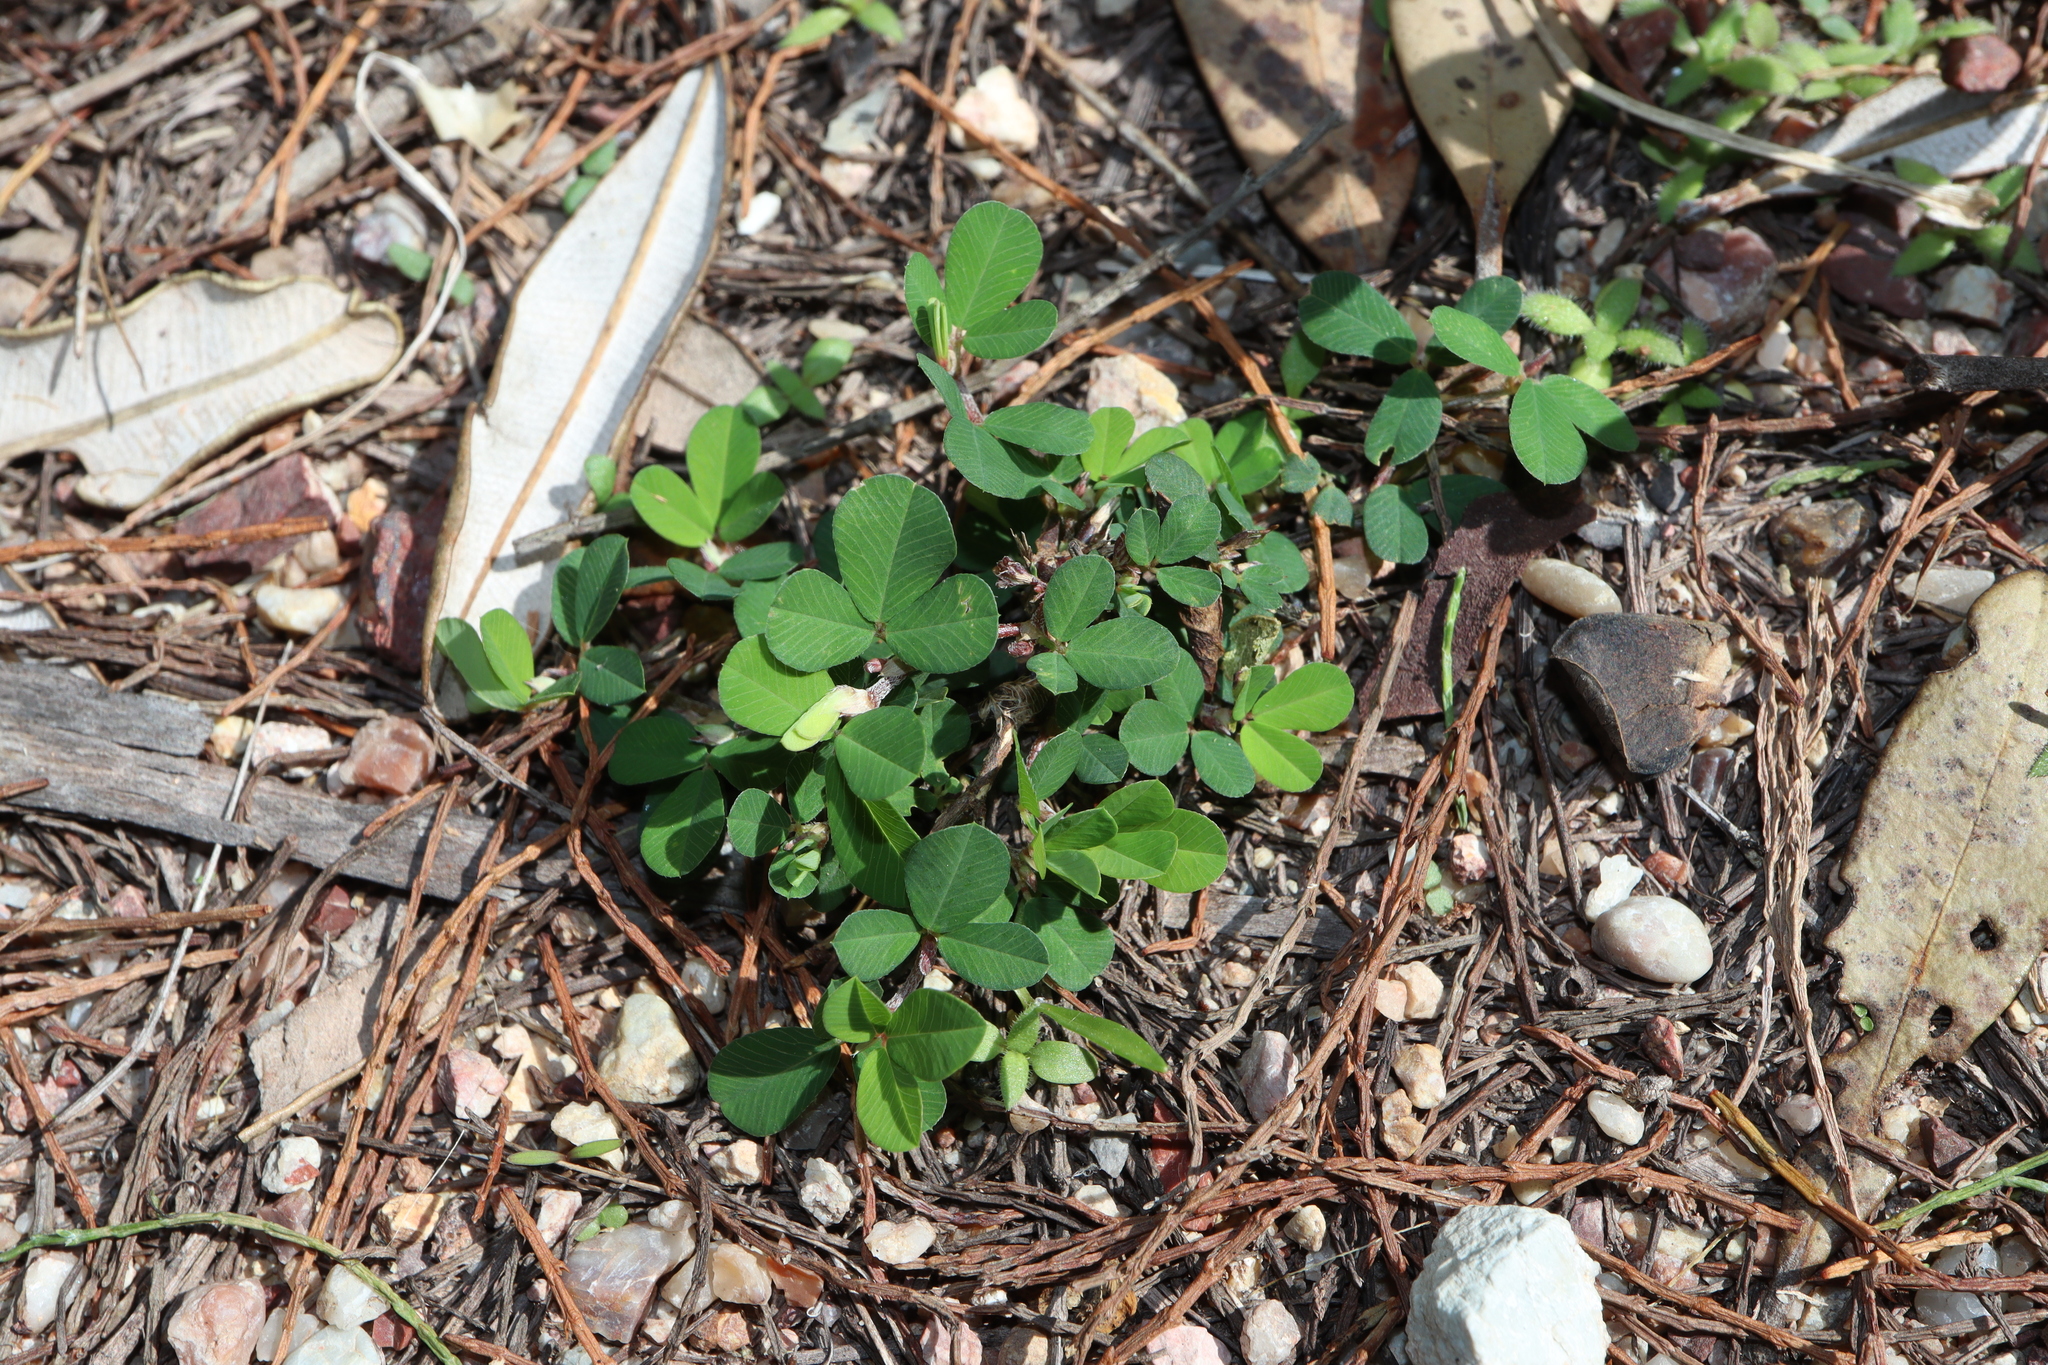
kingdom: Plantae
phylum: Tracheophyta
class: Magnoliopsida
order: Fabales
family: Fabaceae
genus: Kummerowia
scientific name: Kummerowia striata
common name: Japanese clover
